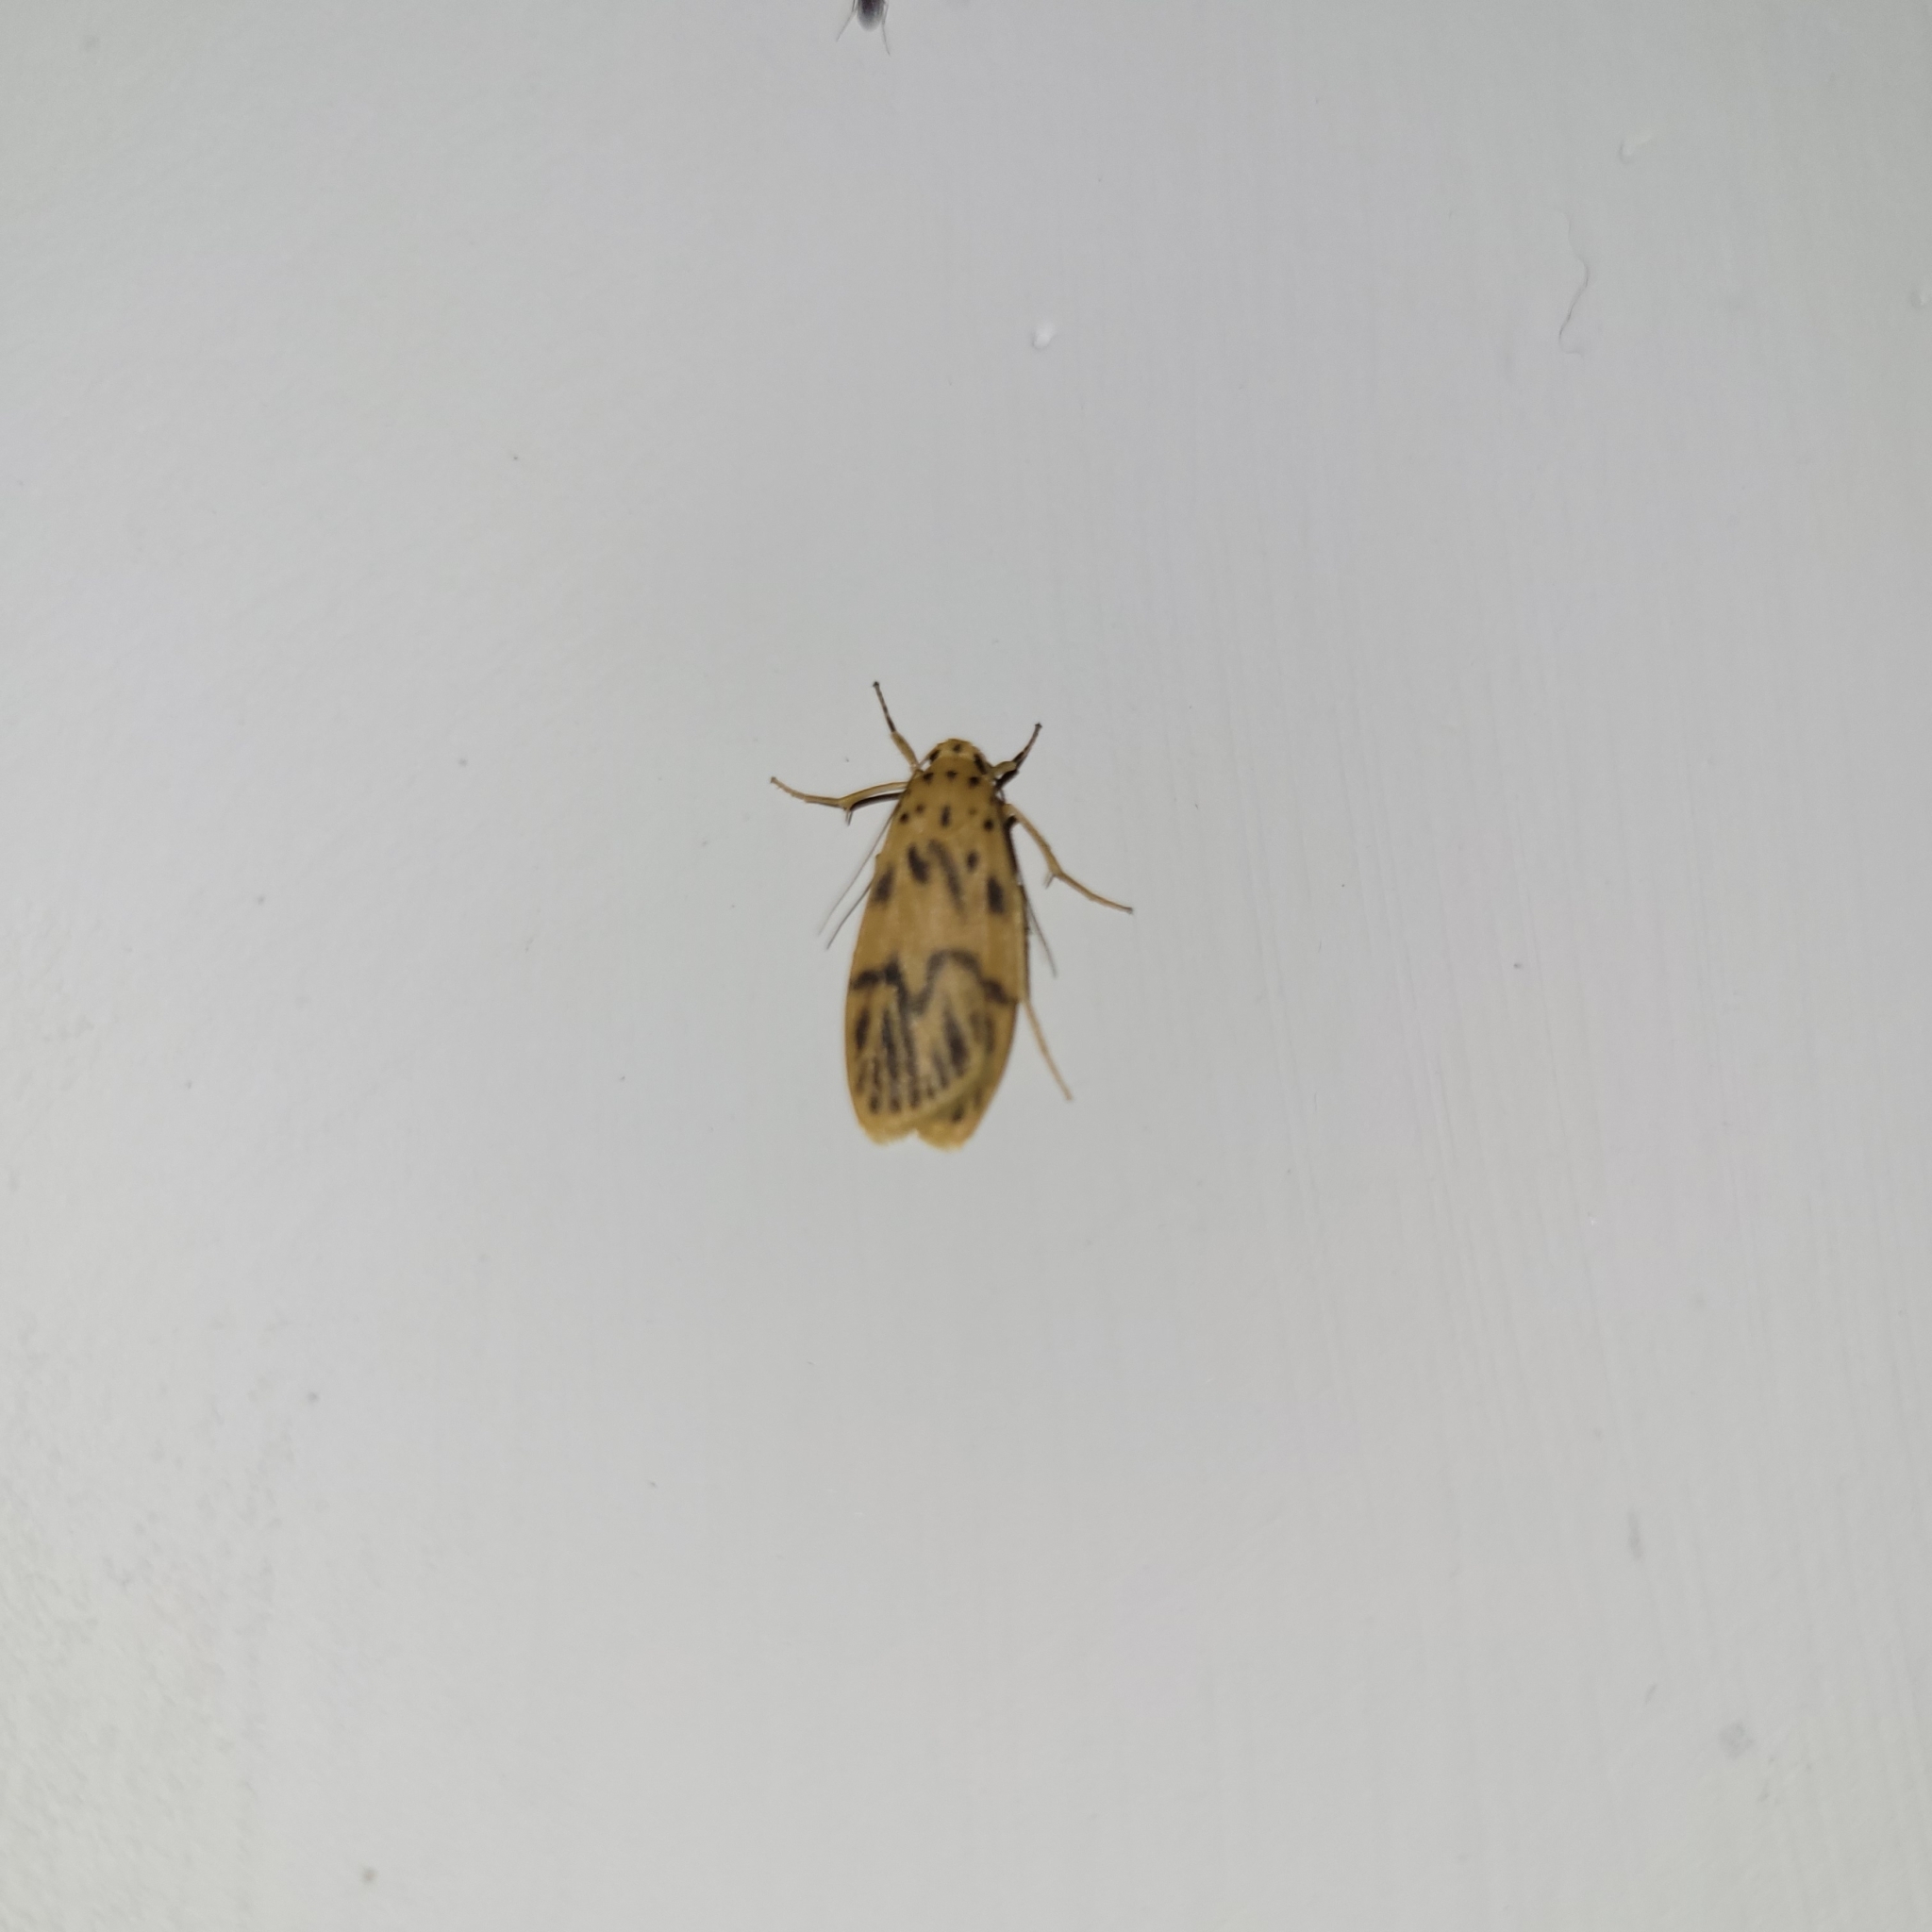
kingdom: Animalia
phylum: Arthropoda
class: Insecta
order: Lepidoptera
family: Erebidae
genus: Teuloma
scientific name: Teuloma nebulosa
